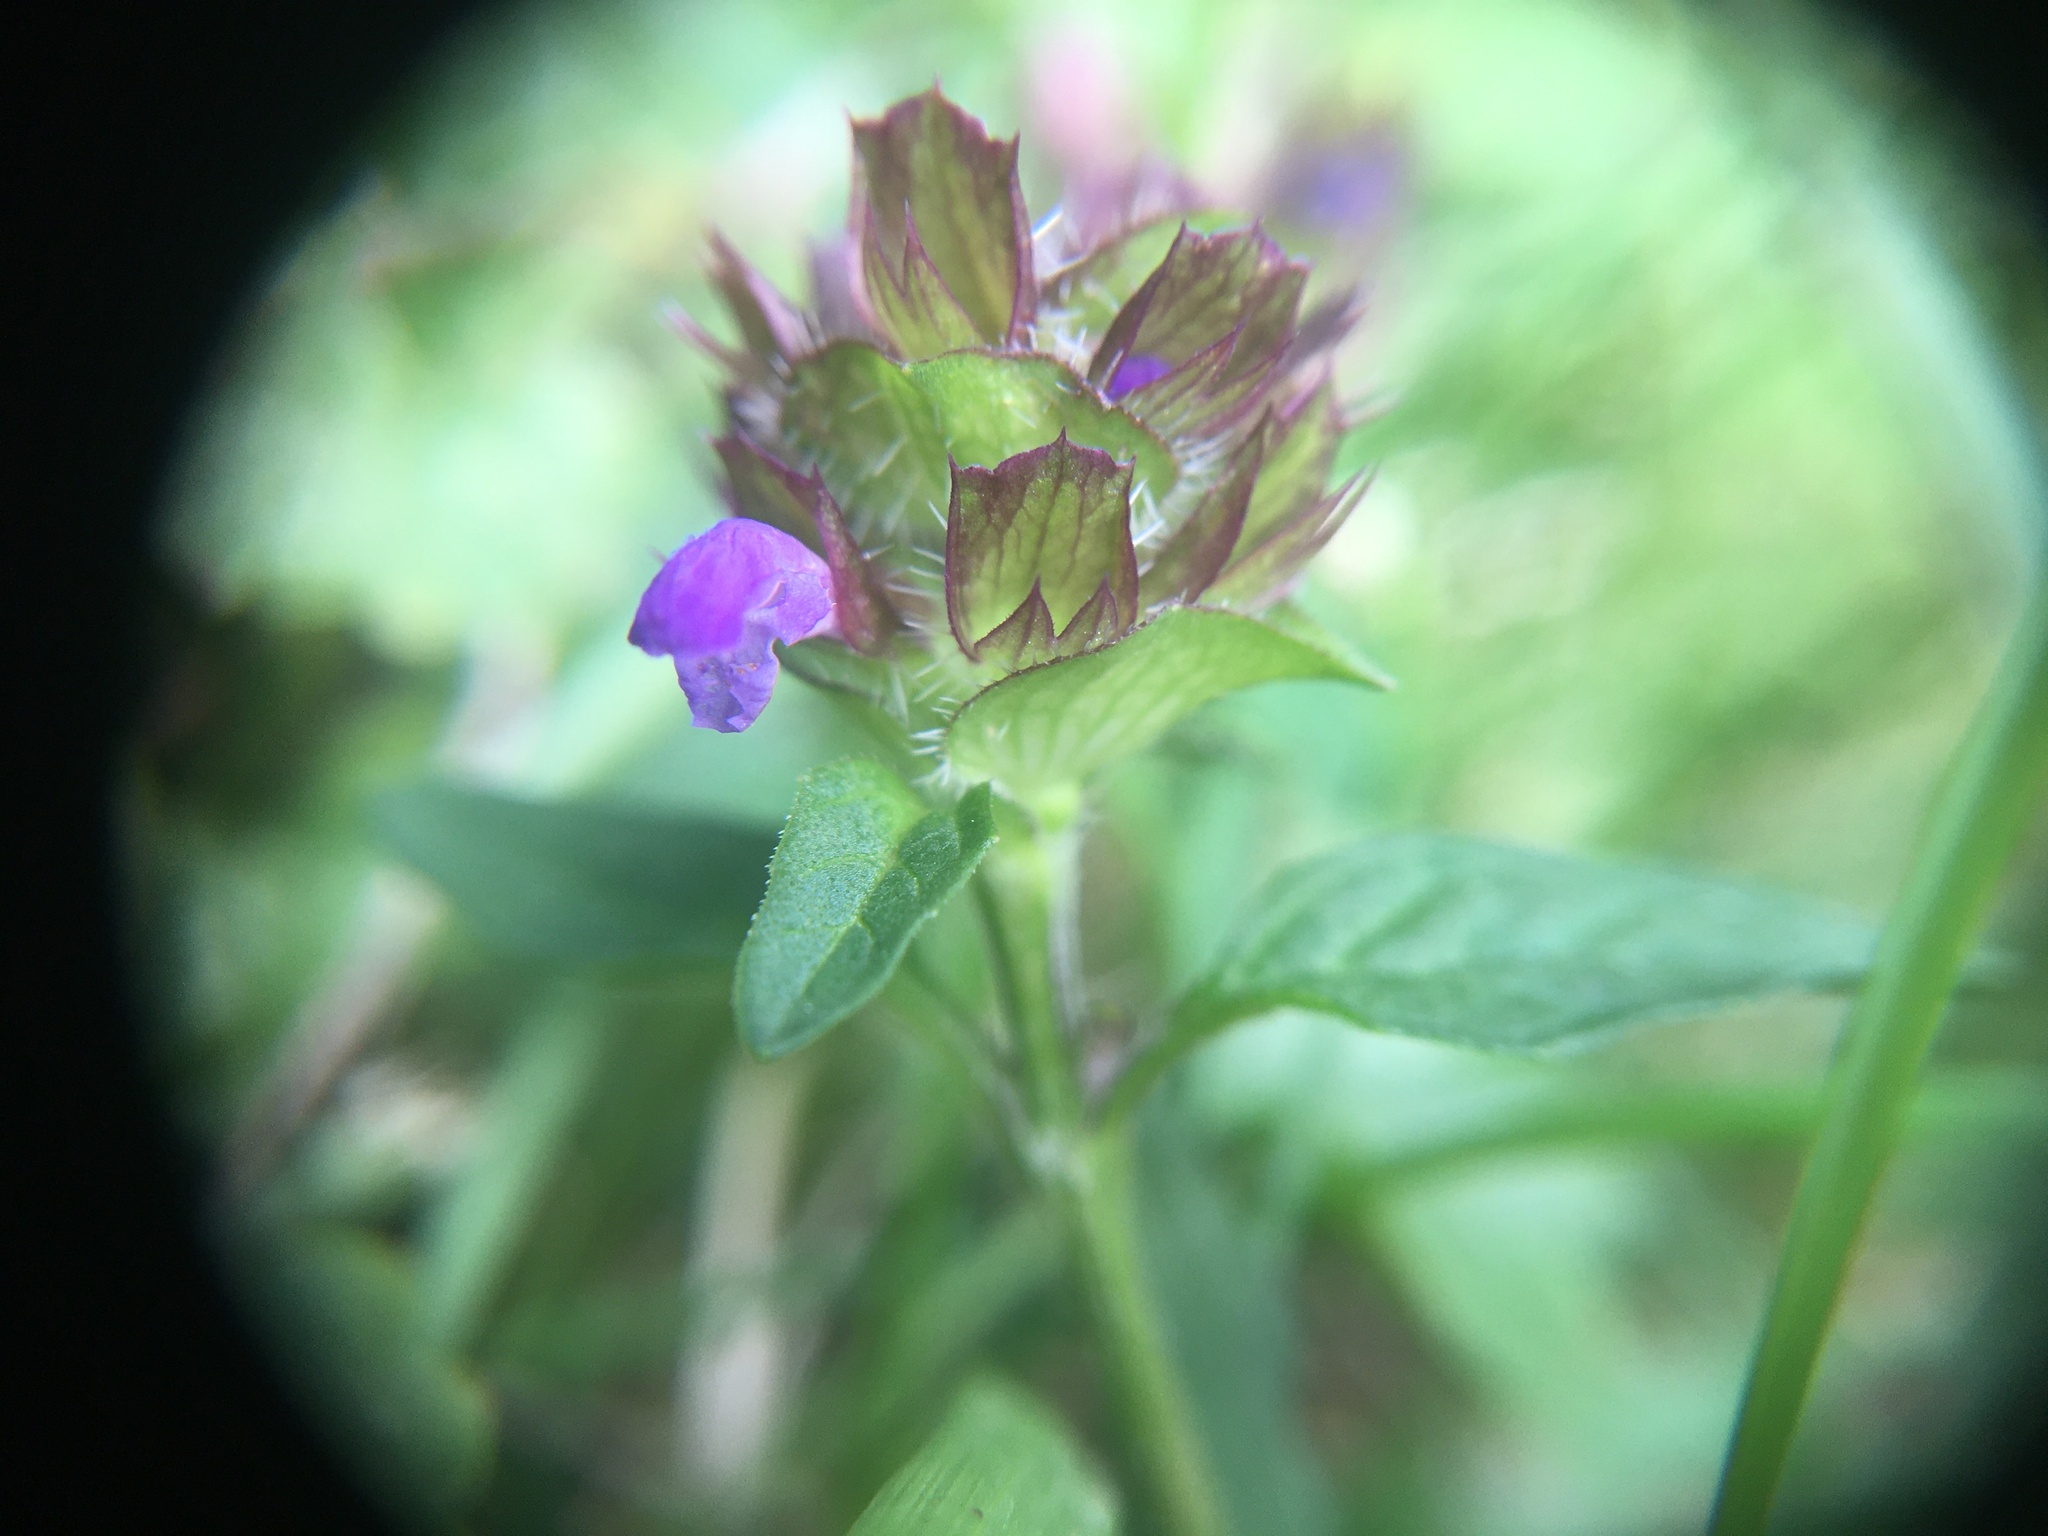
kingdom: Plantae
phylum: Tracheophyta
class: Magnoliopsida
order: Lamiales
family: Lamiaceae
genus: Prunella
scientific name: Prunella vulgaris
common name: Heal-all
